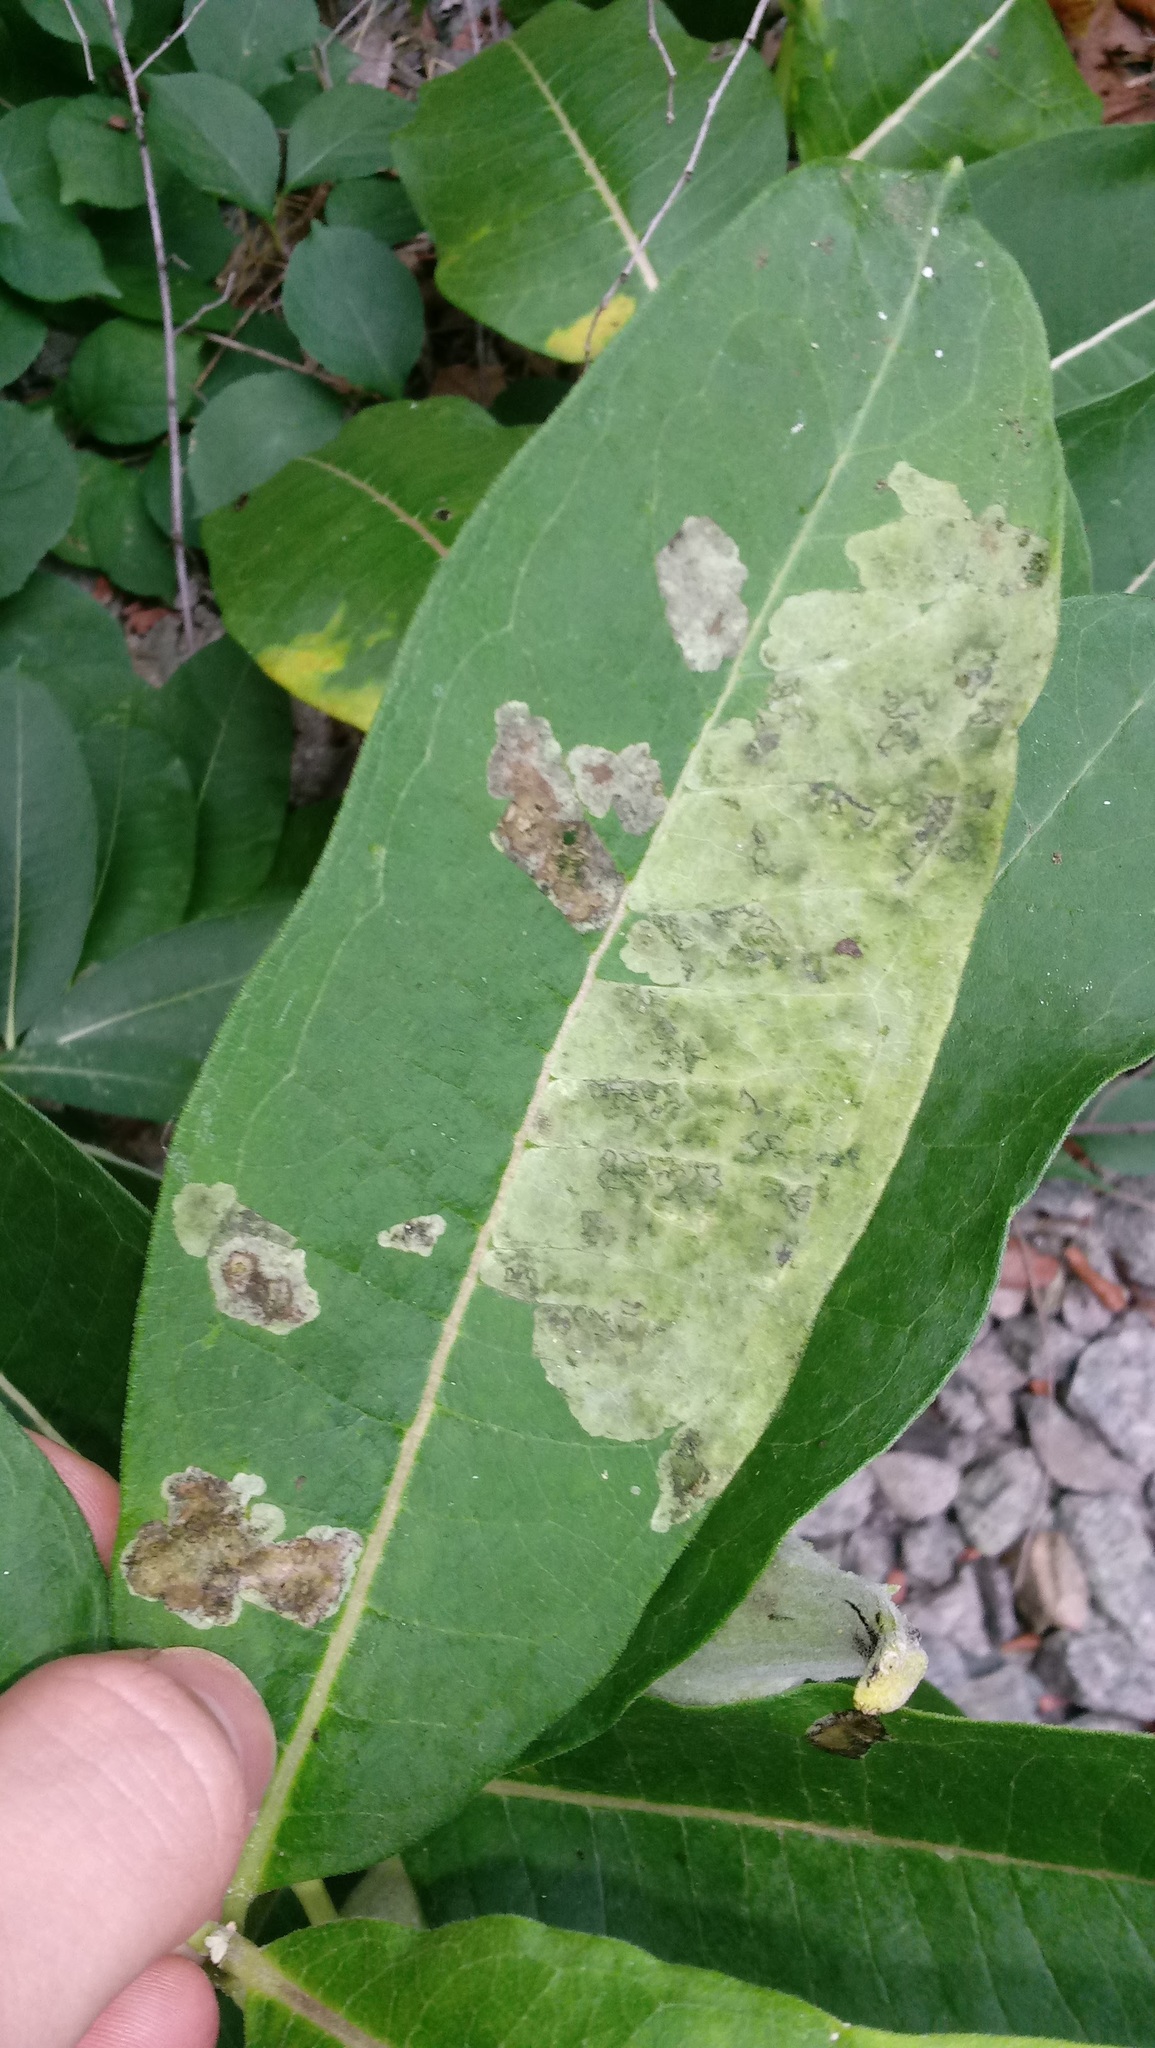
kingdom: Animalia
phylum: Arthropoda
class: Insecta
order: Diptera
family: Agromyzidae
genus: Liriomyza
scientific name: Liriomyza asclepiadis
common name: Milkweed leaf-miner fly
